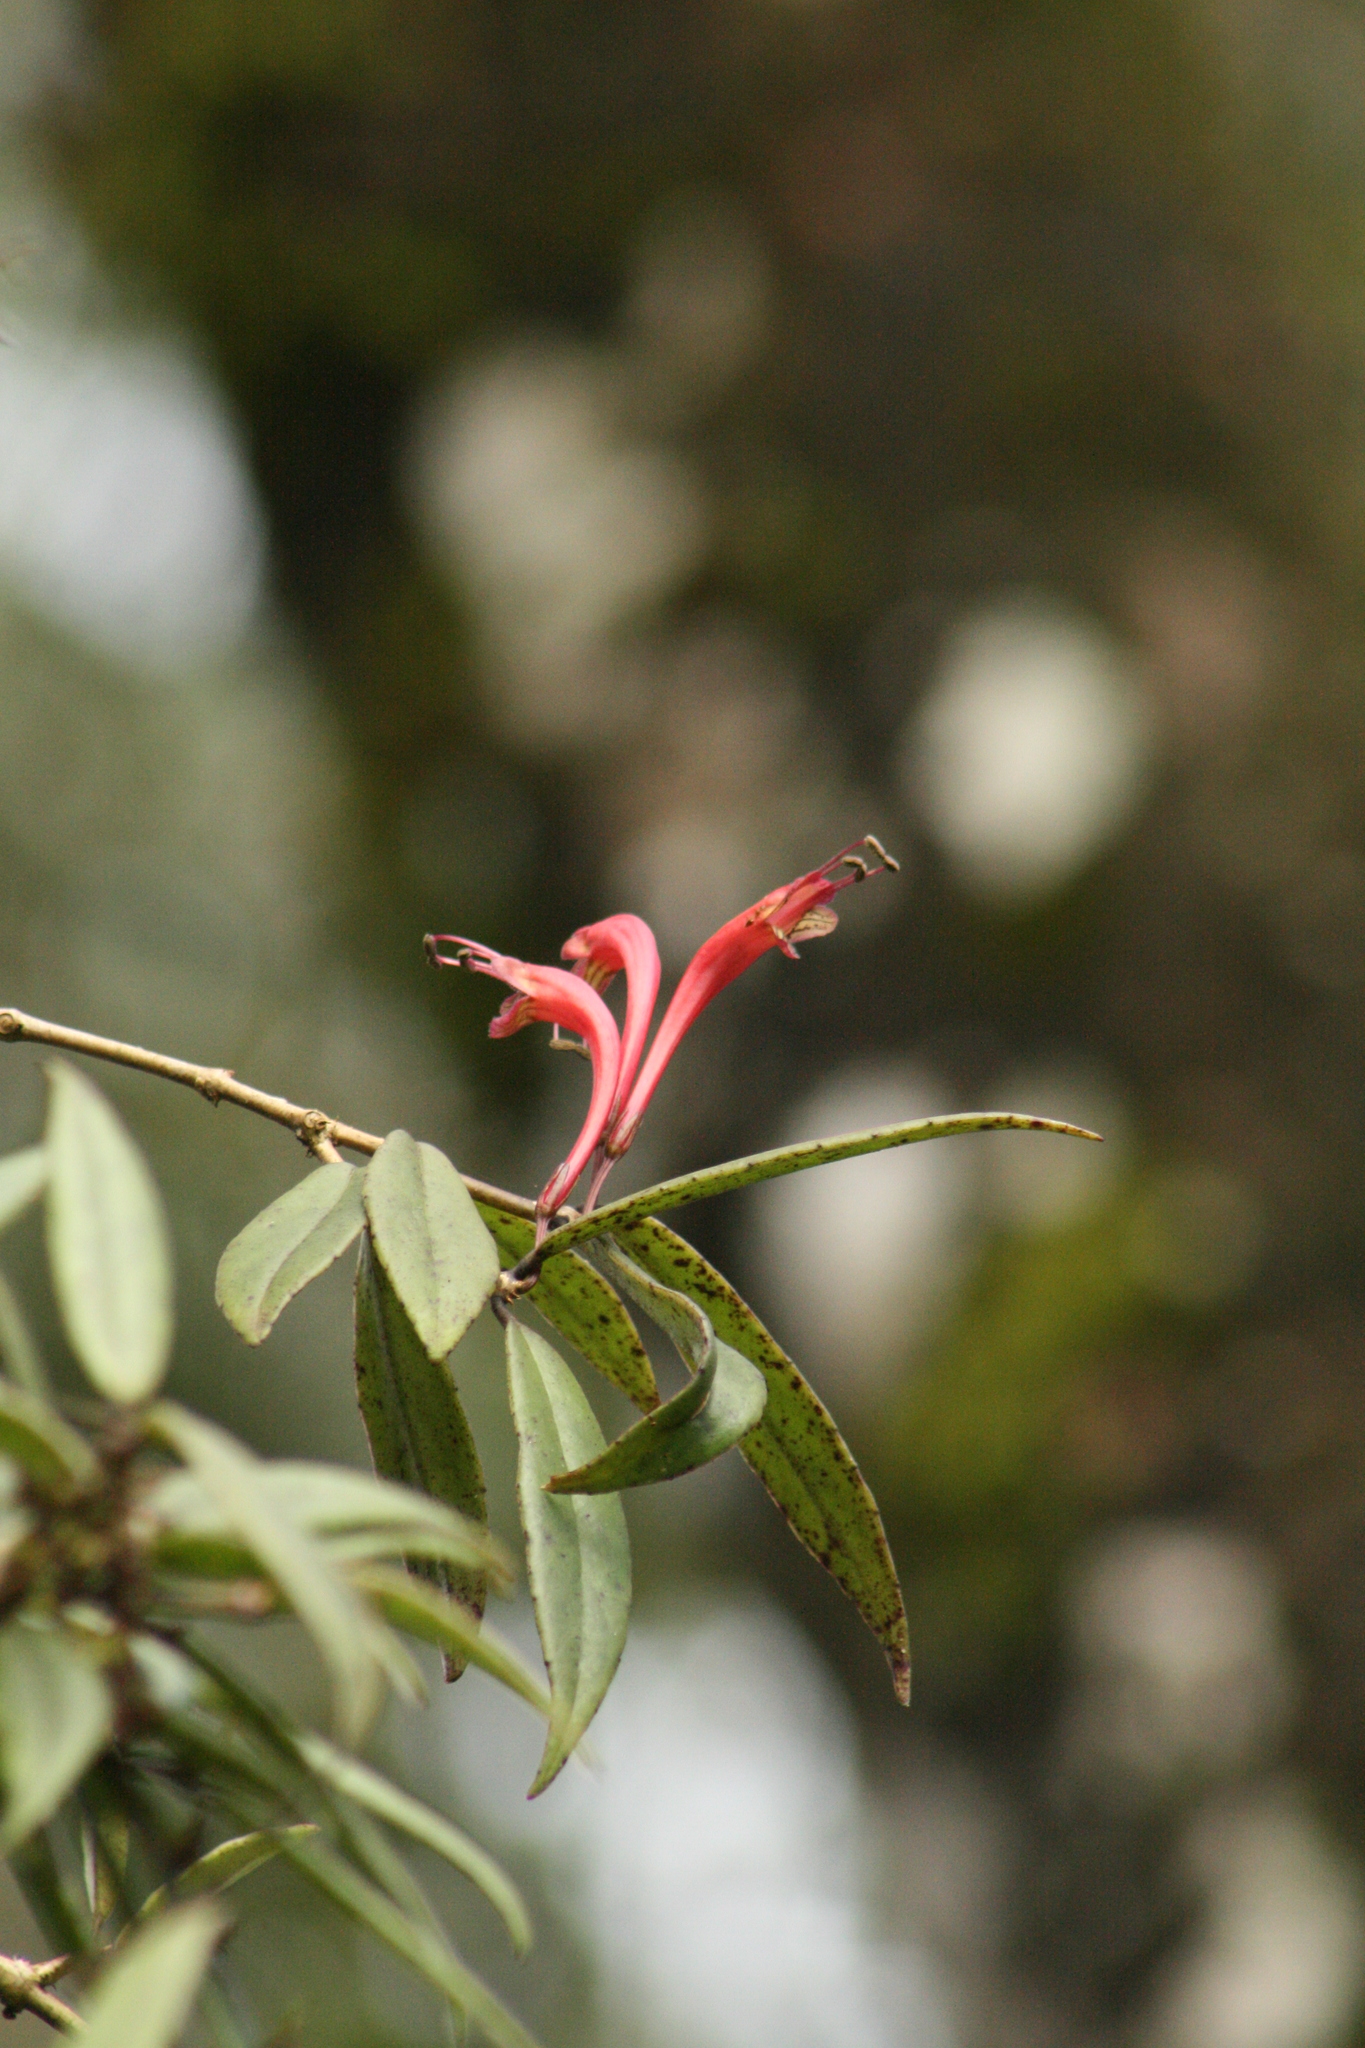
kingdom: Plantae
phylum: Tracheophyta
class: Magnoliopsida
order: Lamiales
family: Gesneriaceae
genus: Aeschynanthus
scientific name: Aeschynanthus perrottetii
